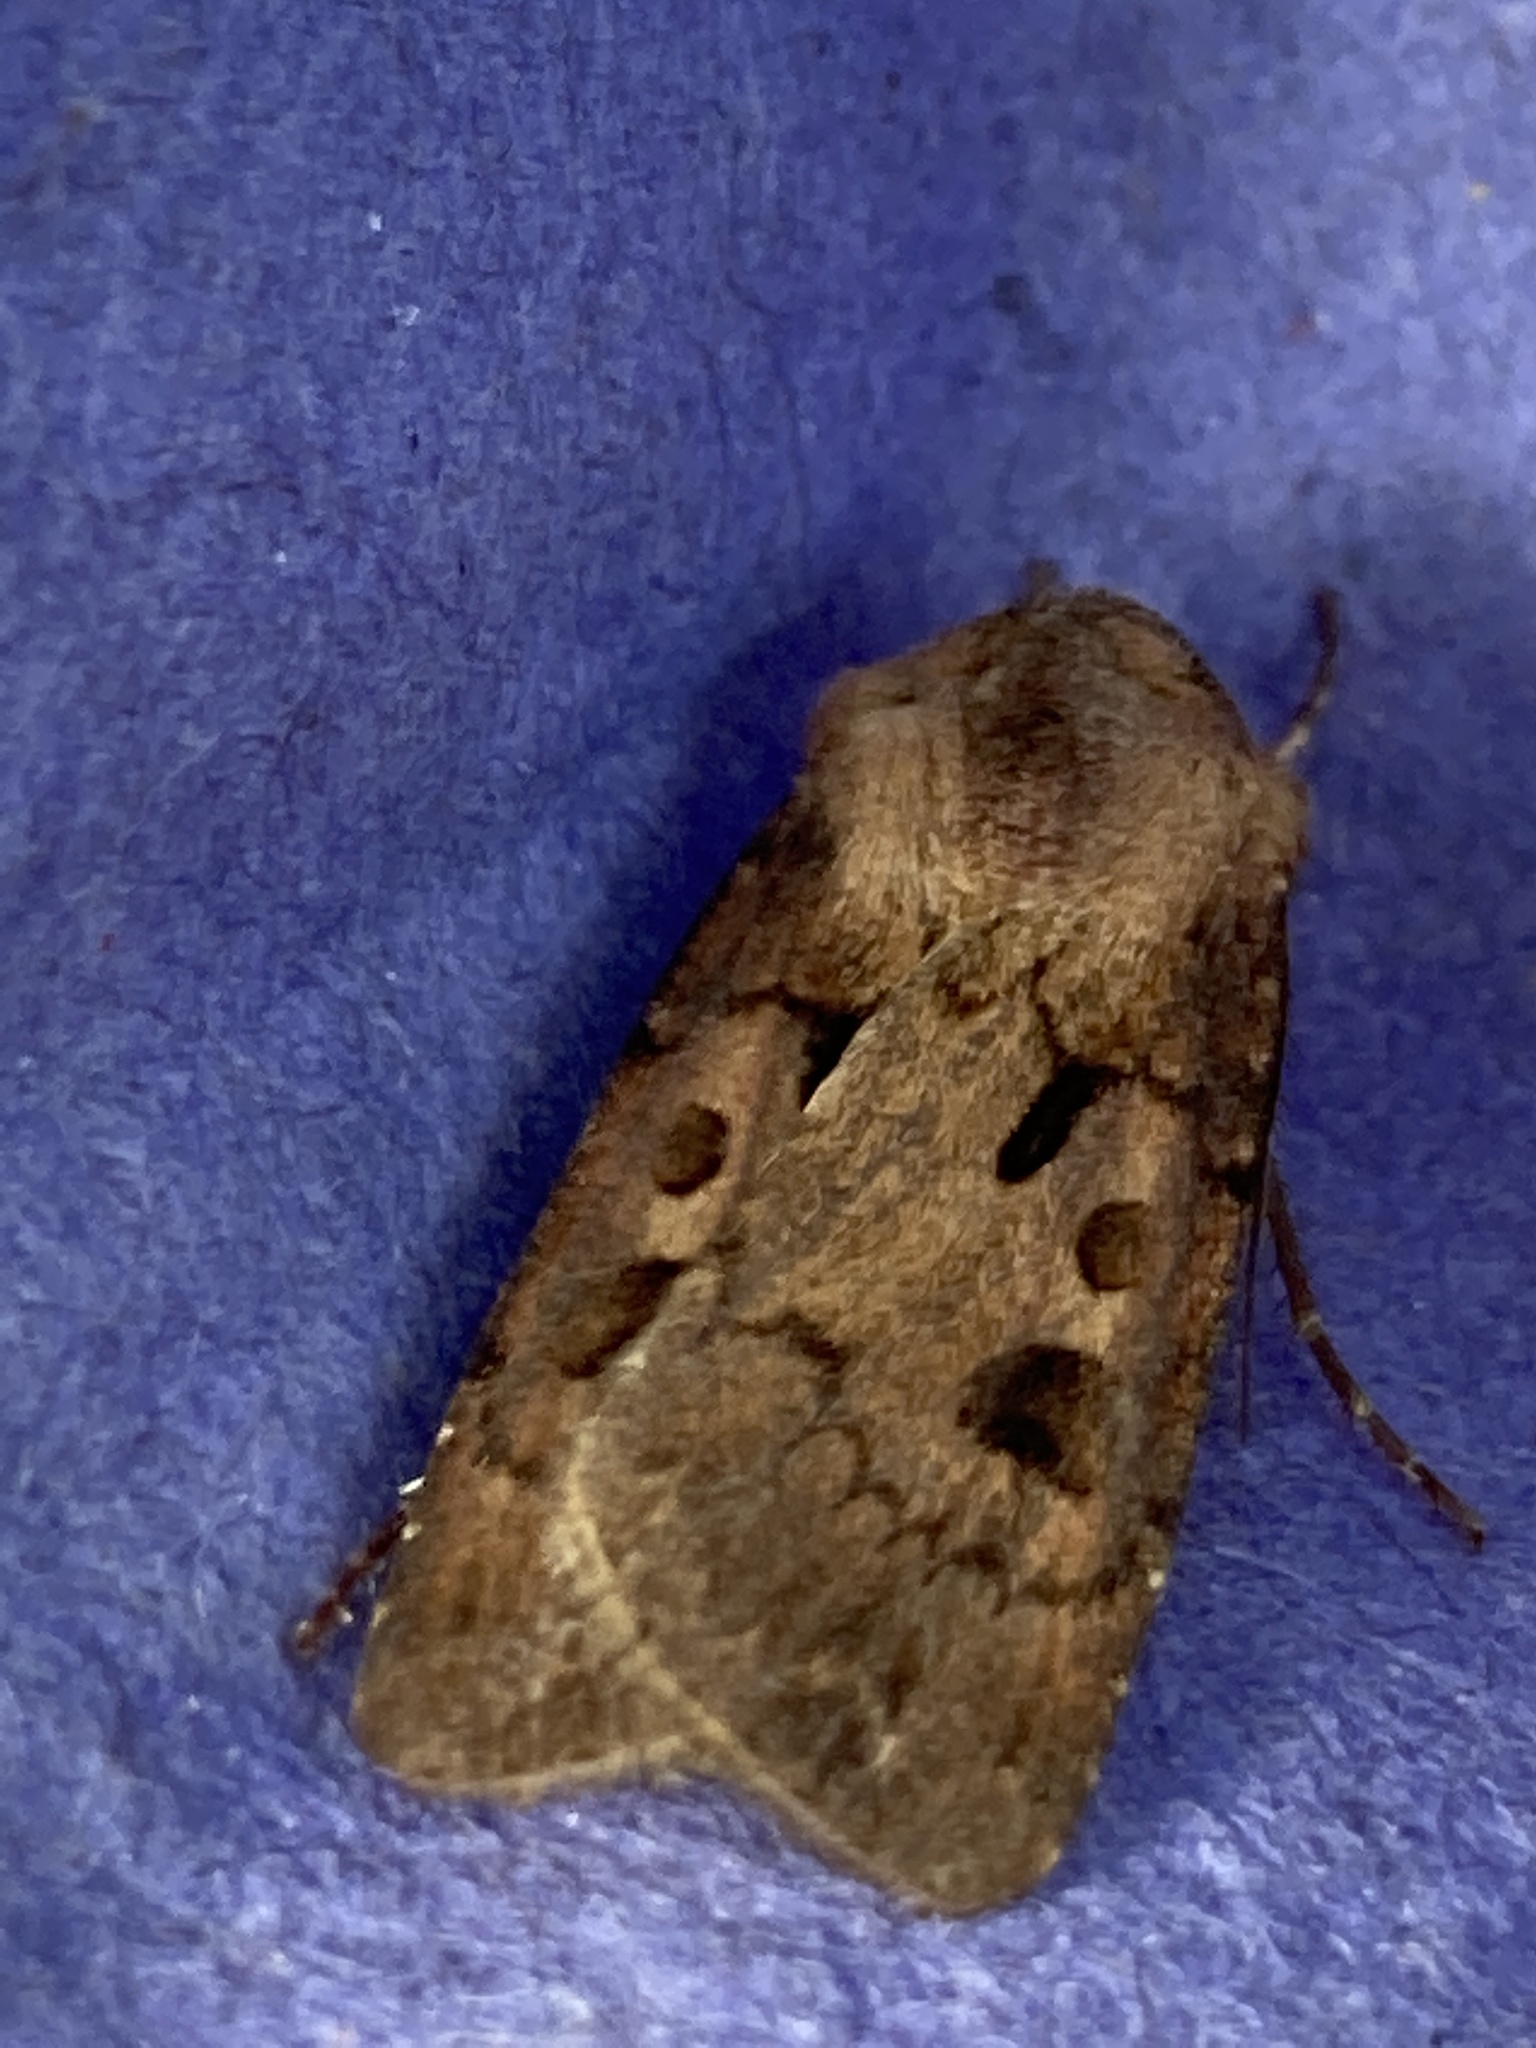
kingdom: Animalia
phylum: Arthropoda
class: Insecta
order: Lepidoptera
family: Noctuidae
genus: Agrotis
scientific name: Agrotis exclamationis
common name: Heart and dart
